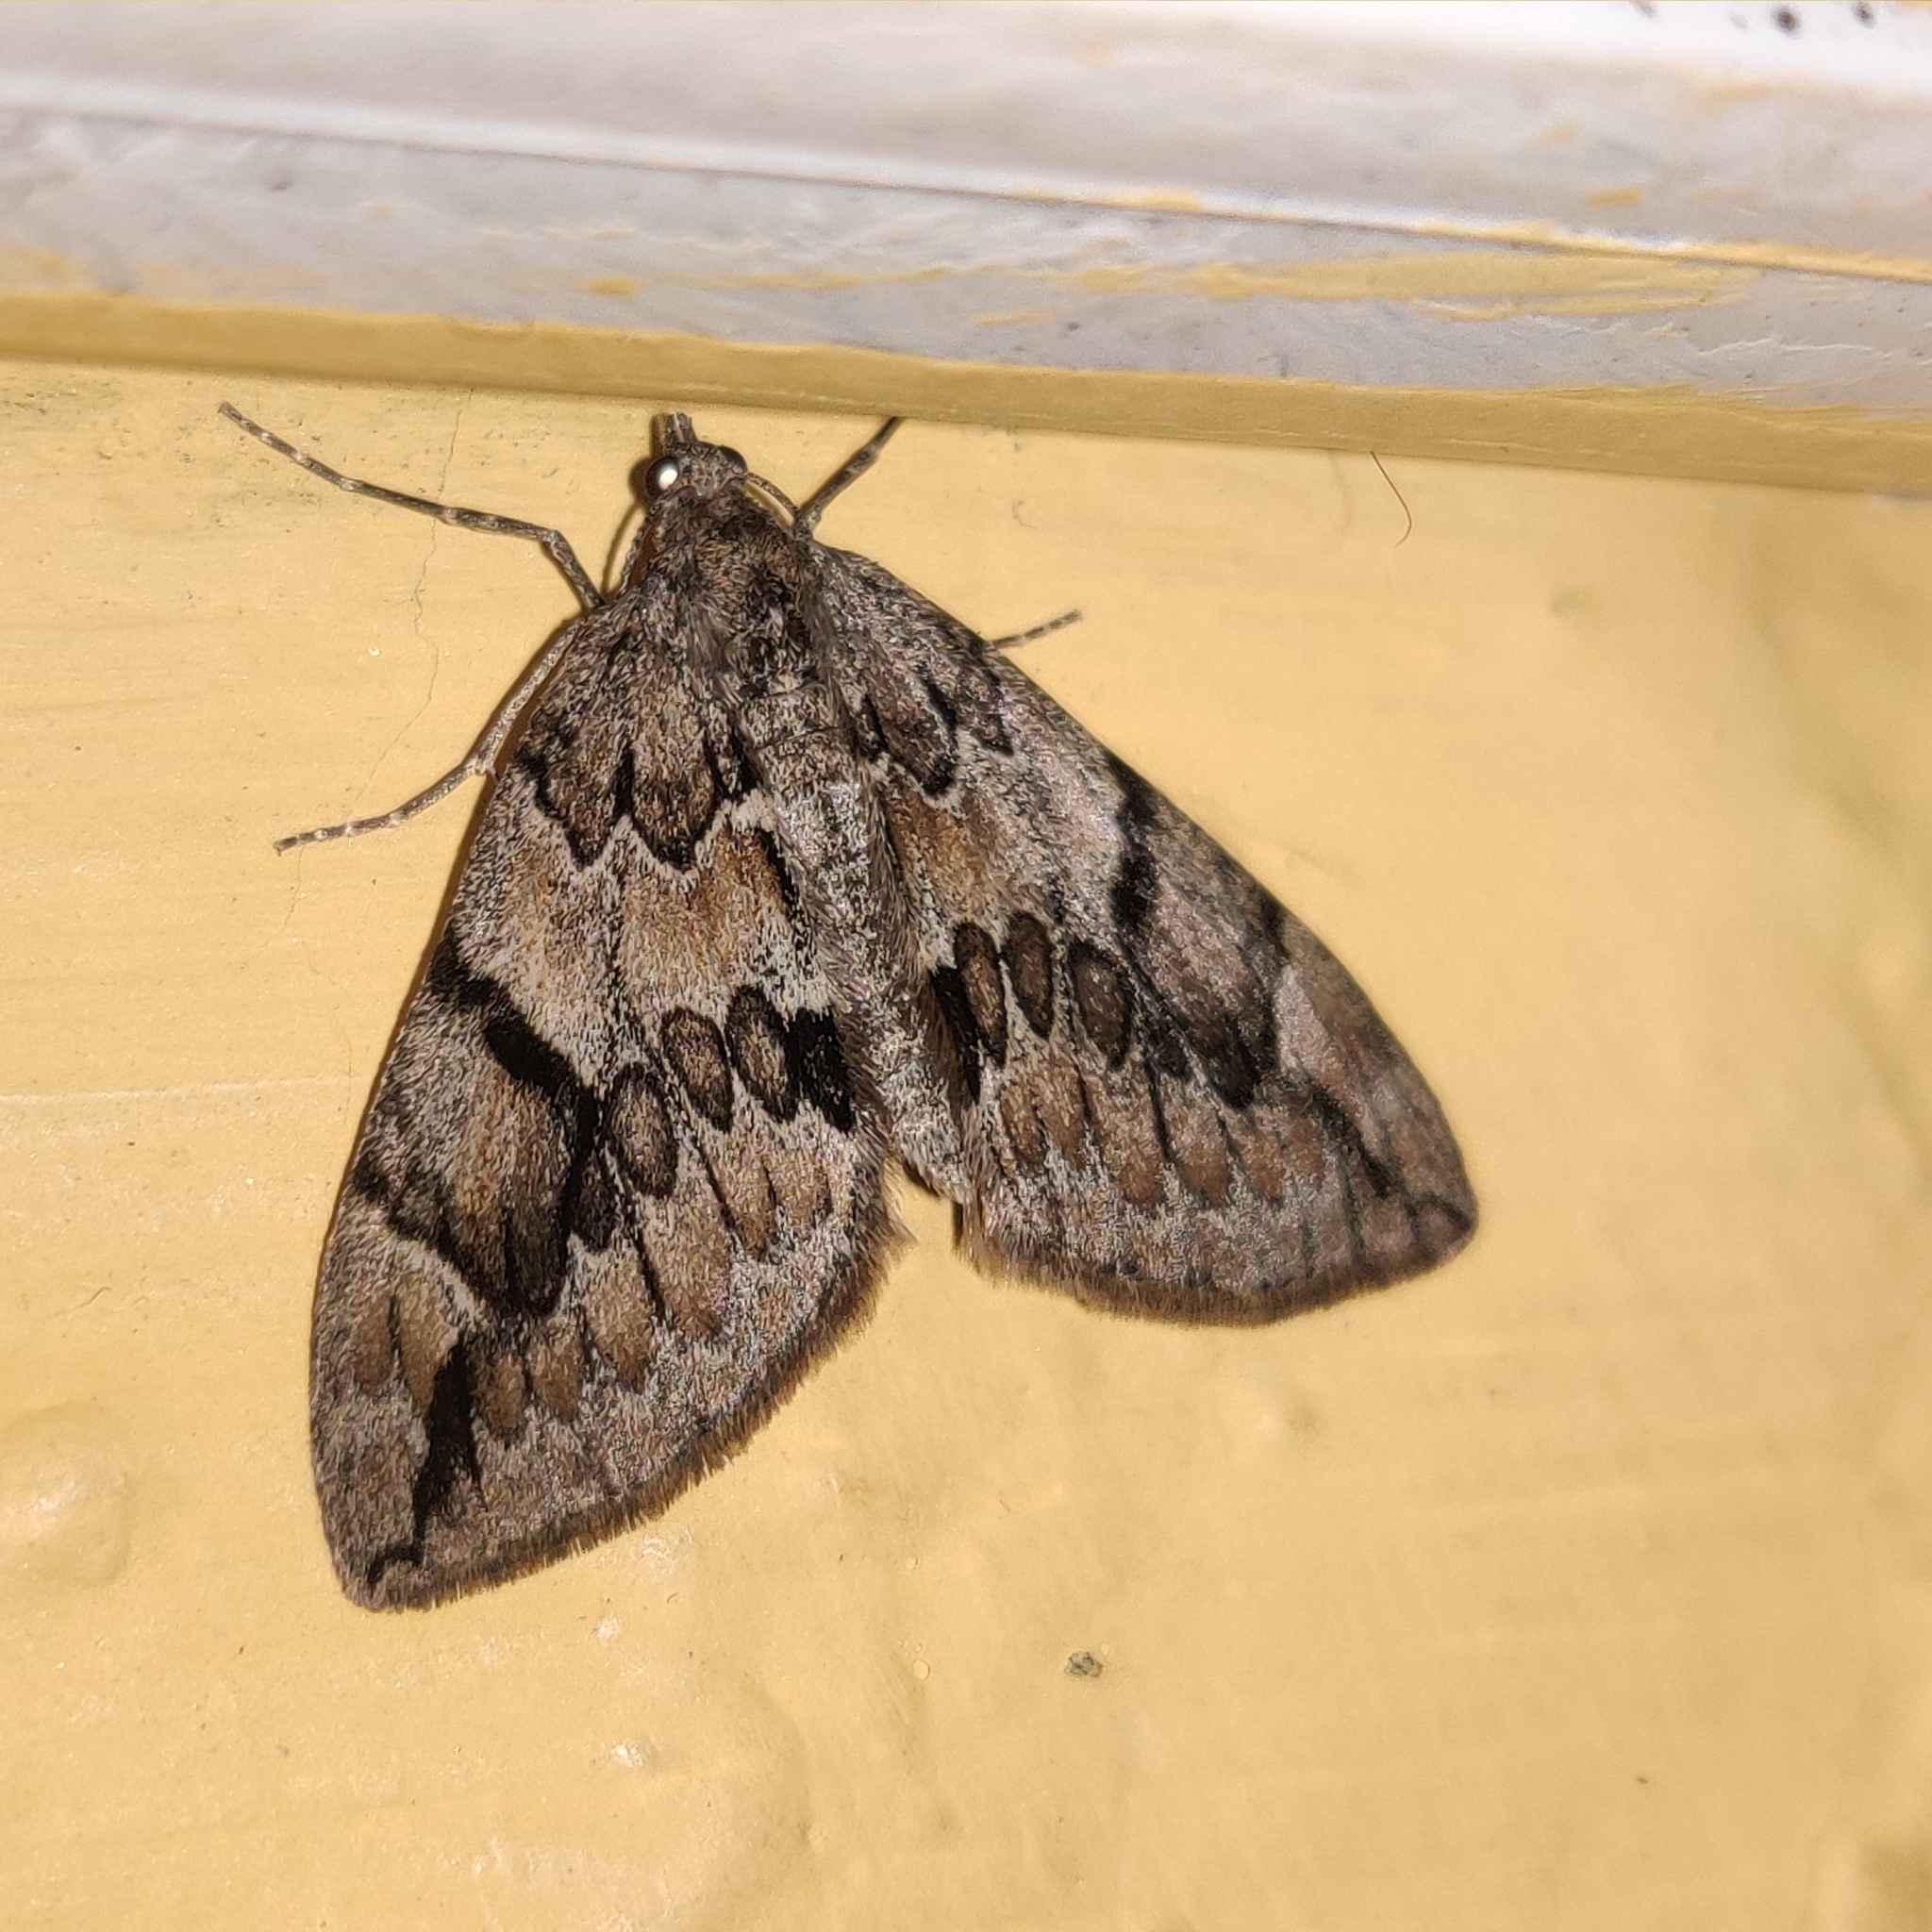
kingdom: Animalia
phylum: Arthropoda
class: Insecta
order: Lepidoptera
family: Geometridae
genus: Heterothera
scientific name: Heterothera consimilis
